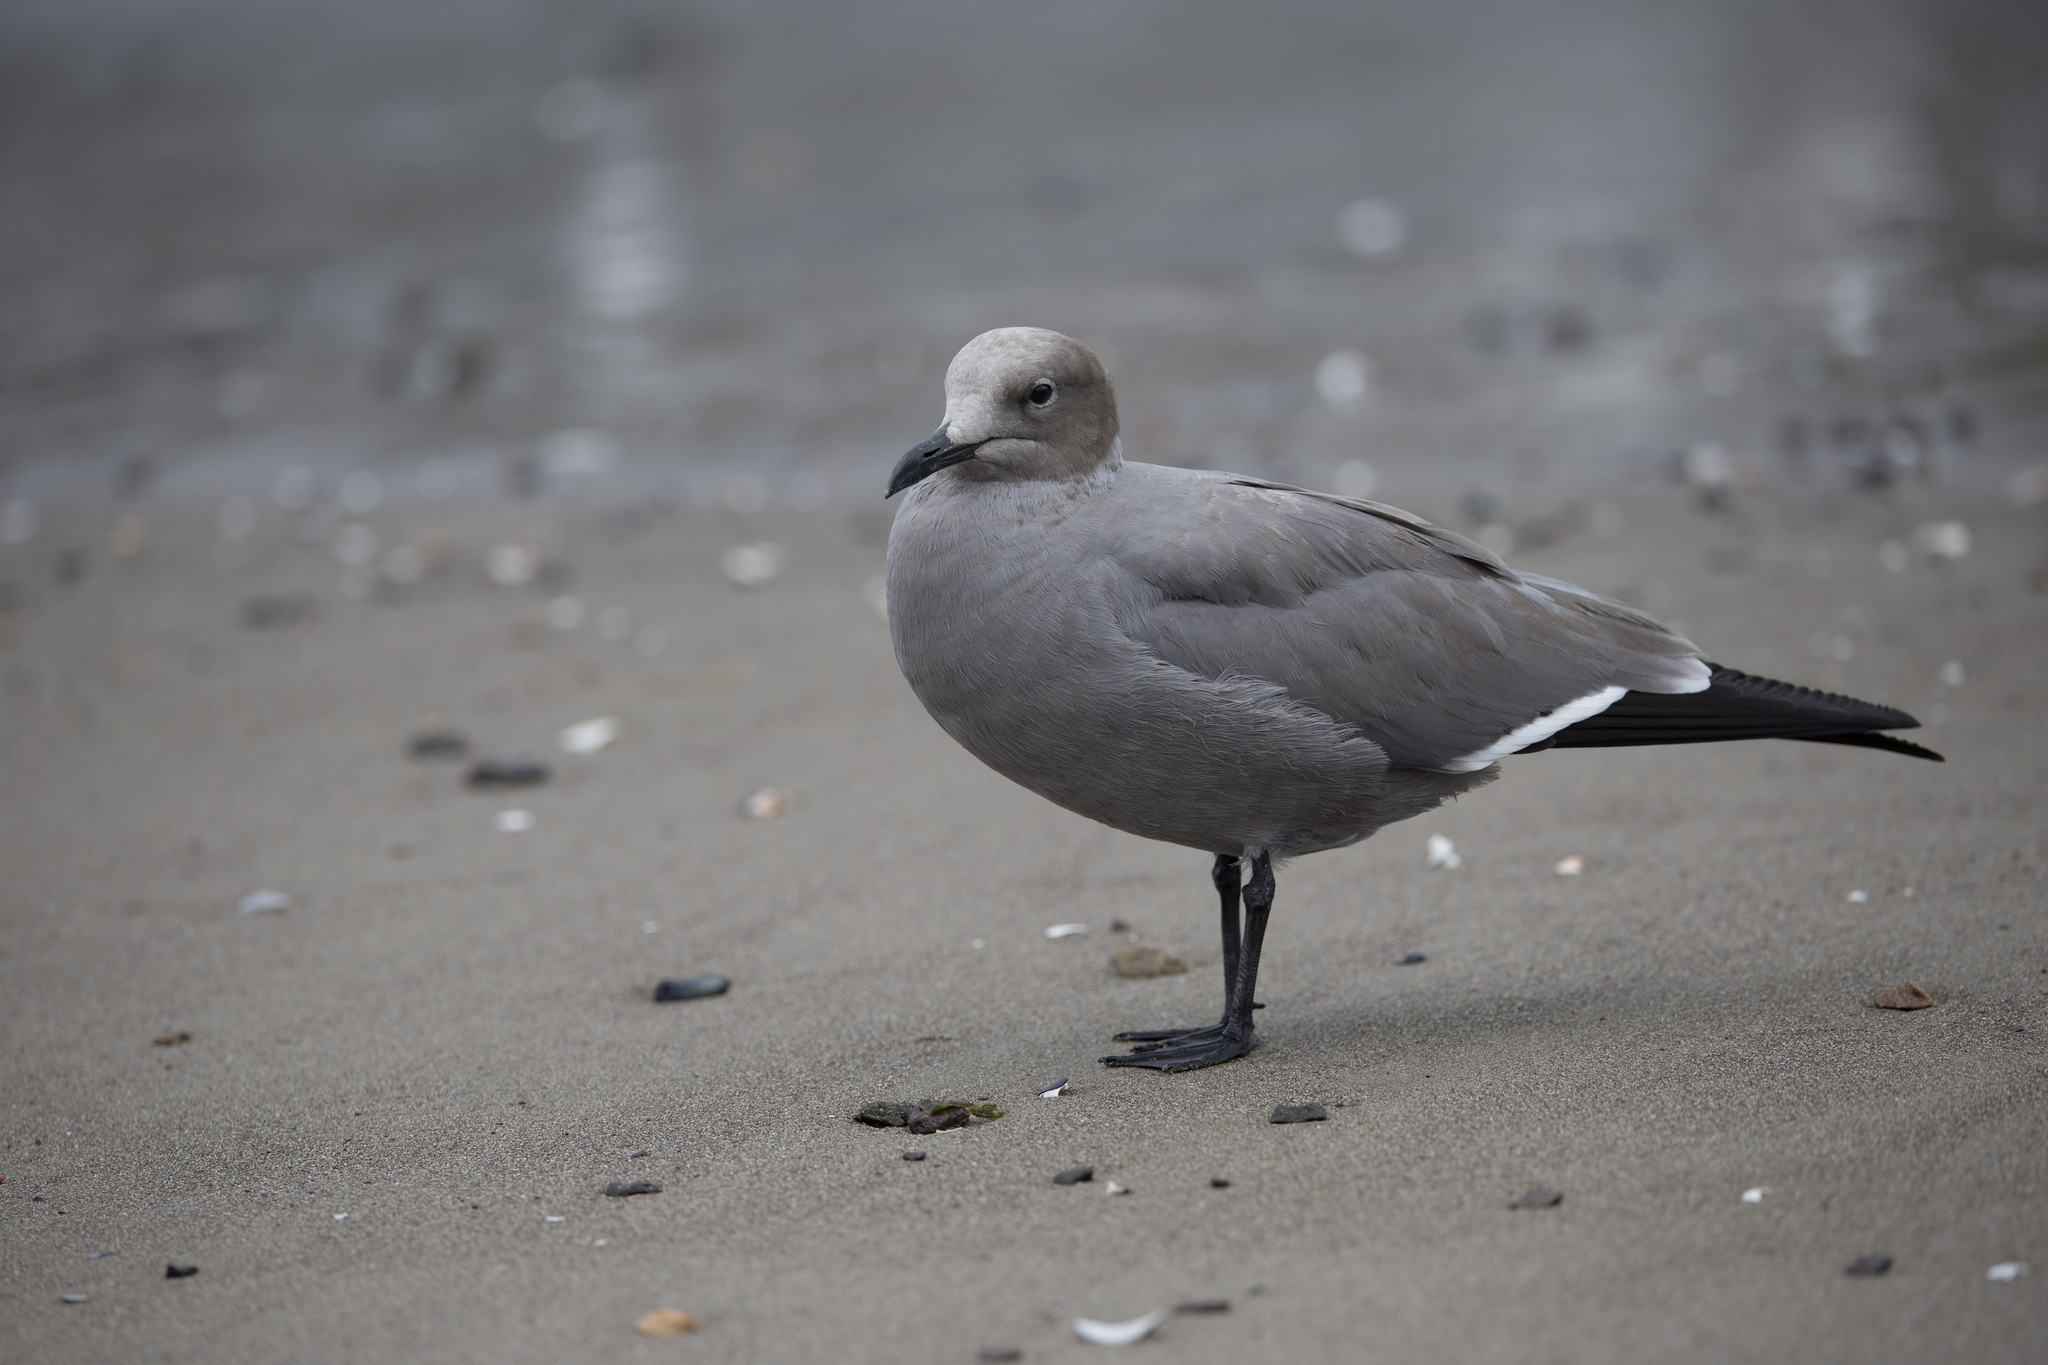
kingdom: Animalia
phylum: Chordata
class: Aves
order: Charadriiformes
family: Laridae
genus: Leucophaeus
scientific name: Leucophaeus modestus
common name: Gray gull
